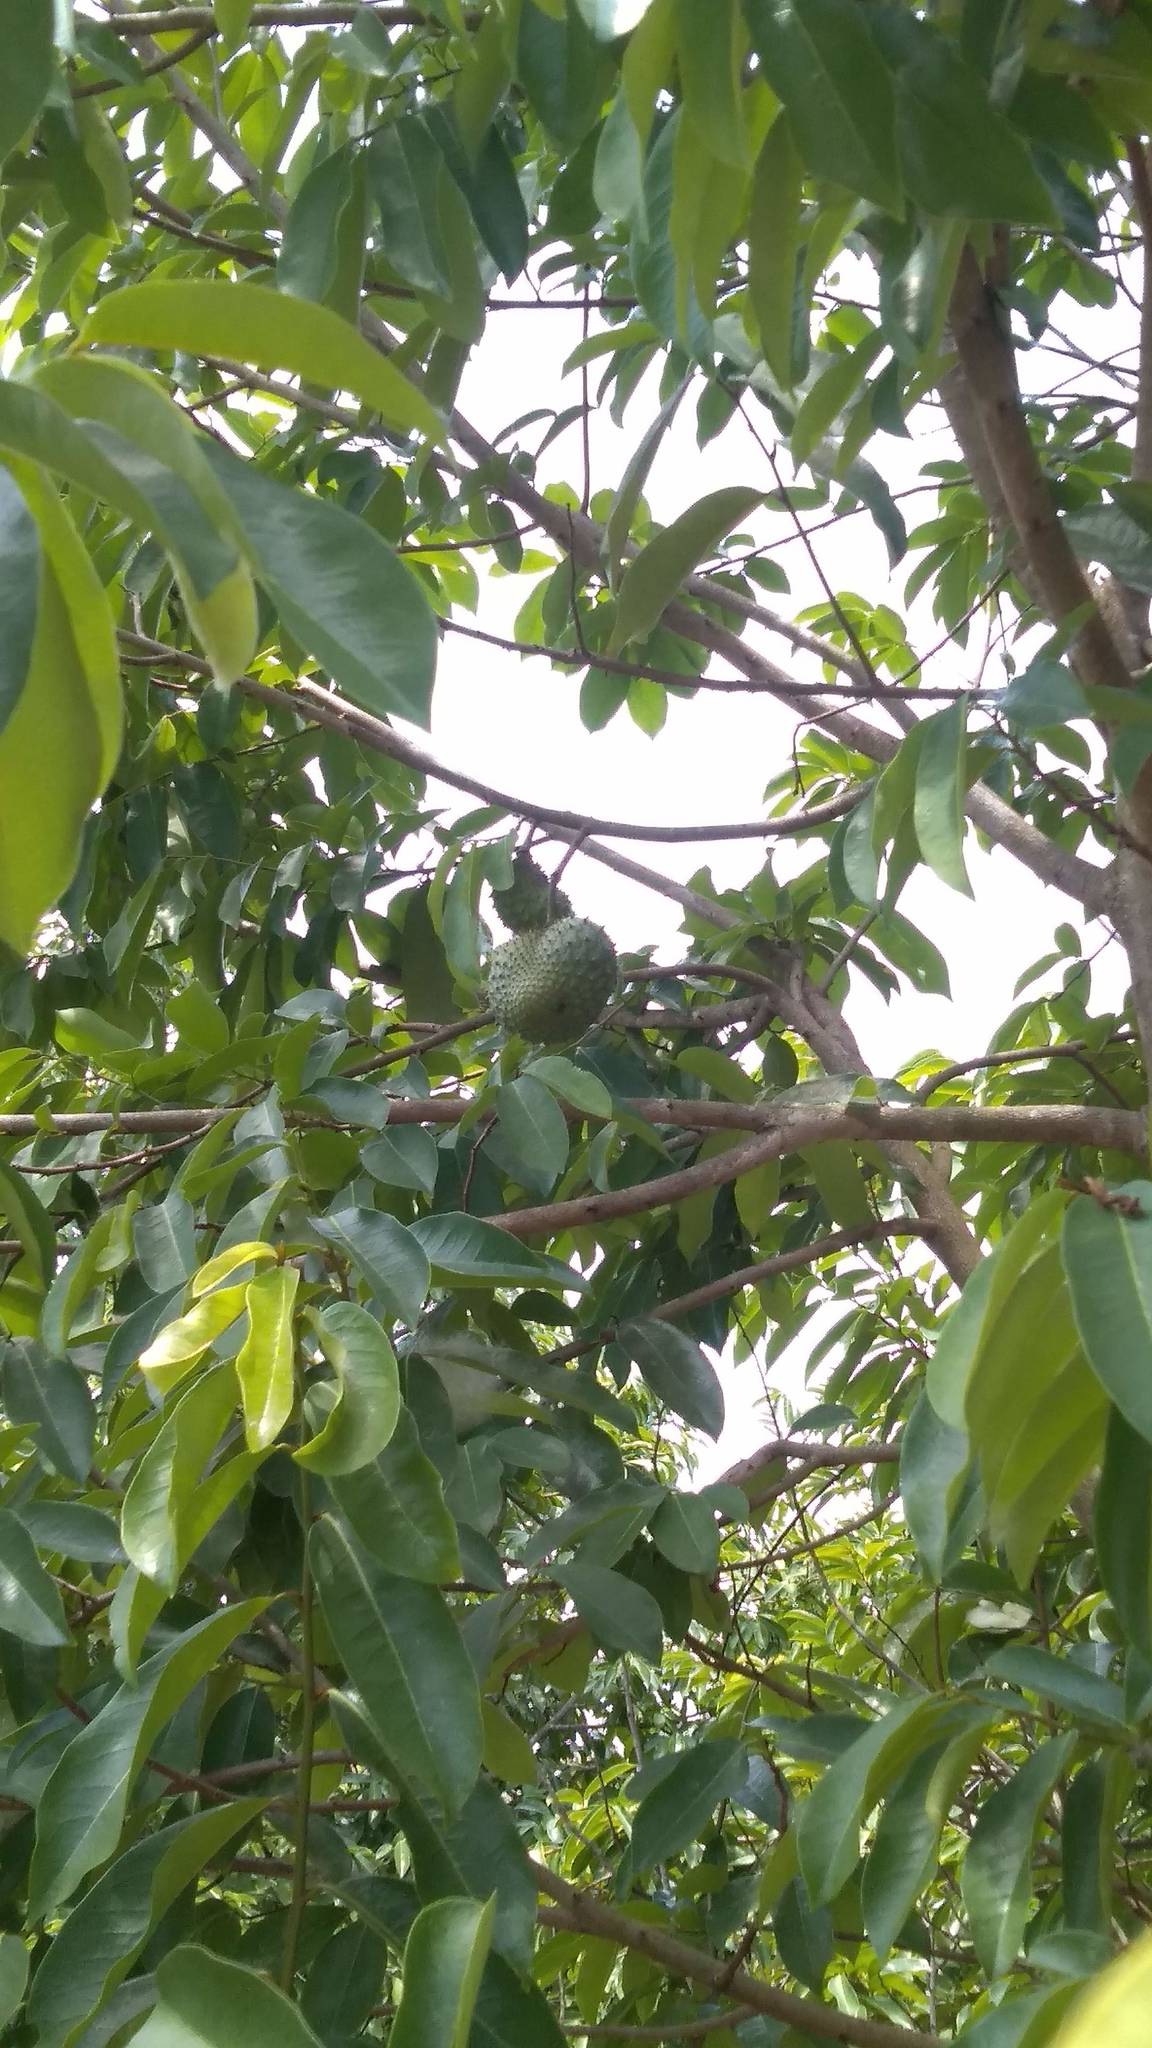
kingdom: Plantae
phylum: Tracheophyta
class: Magnoliopsida
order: Magnoliales
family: Annonaceae
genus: Annona
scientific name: Annona muricata
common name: Soursop
